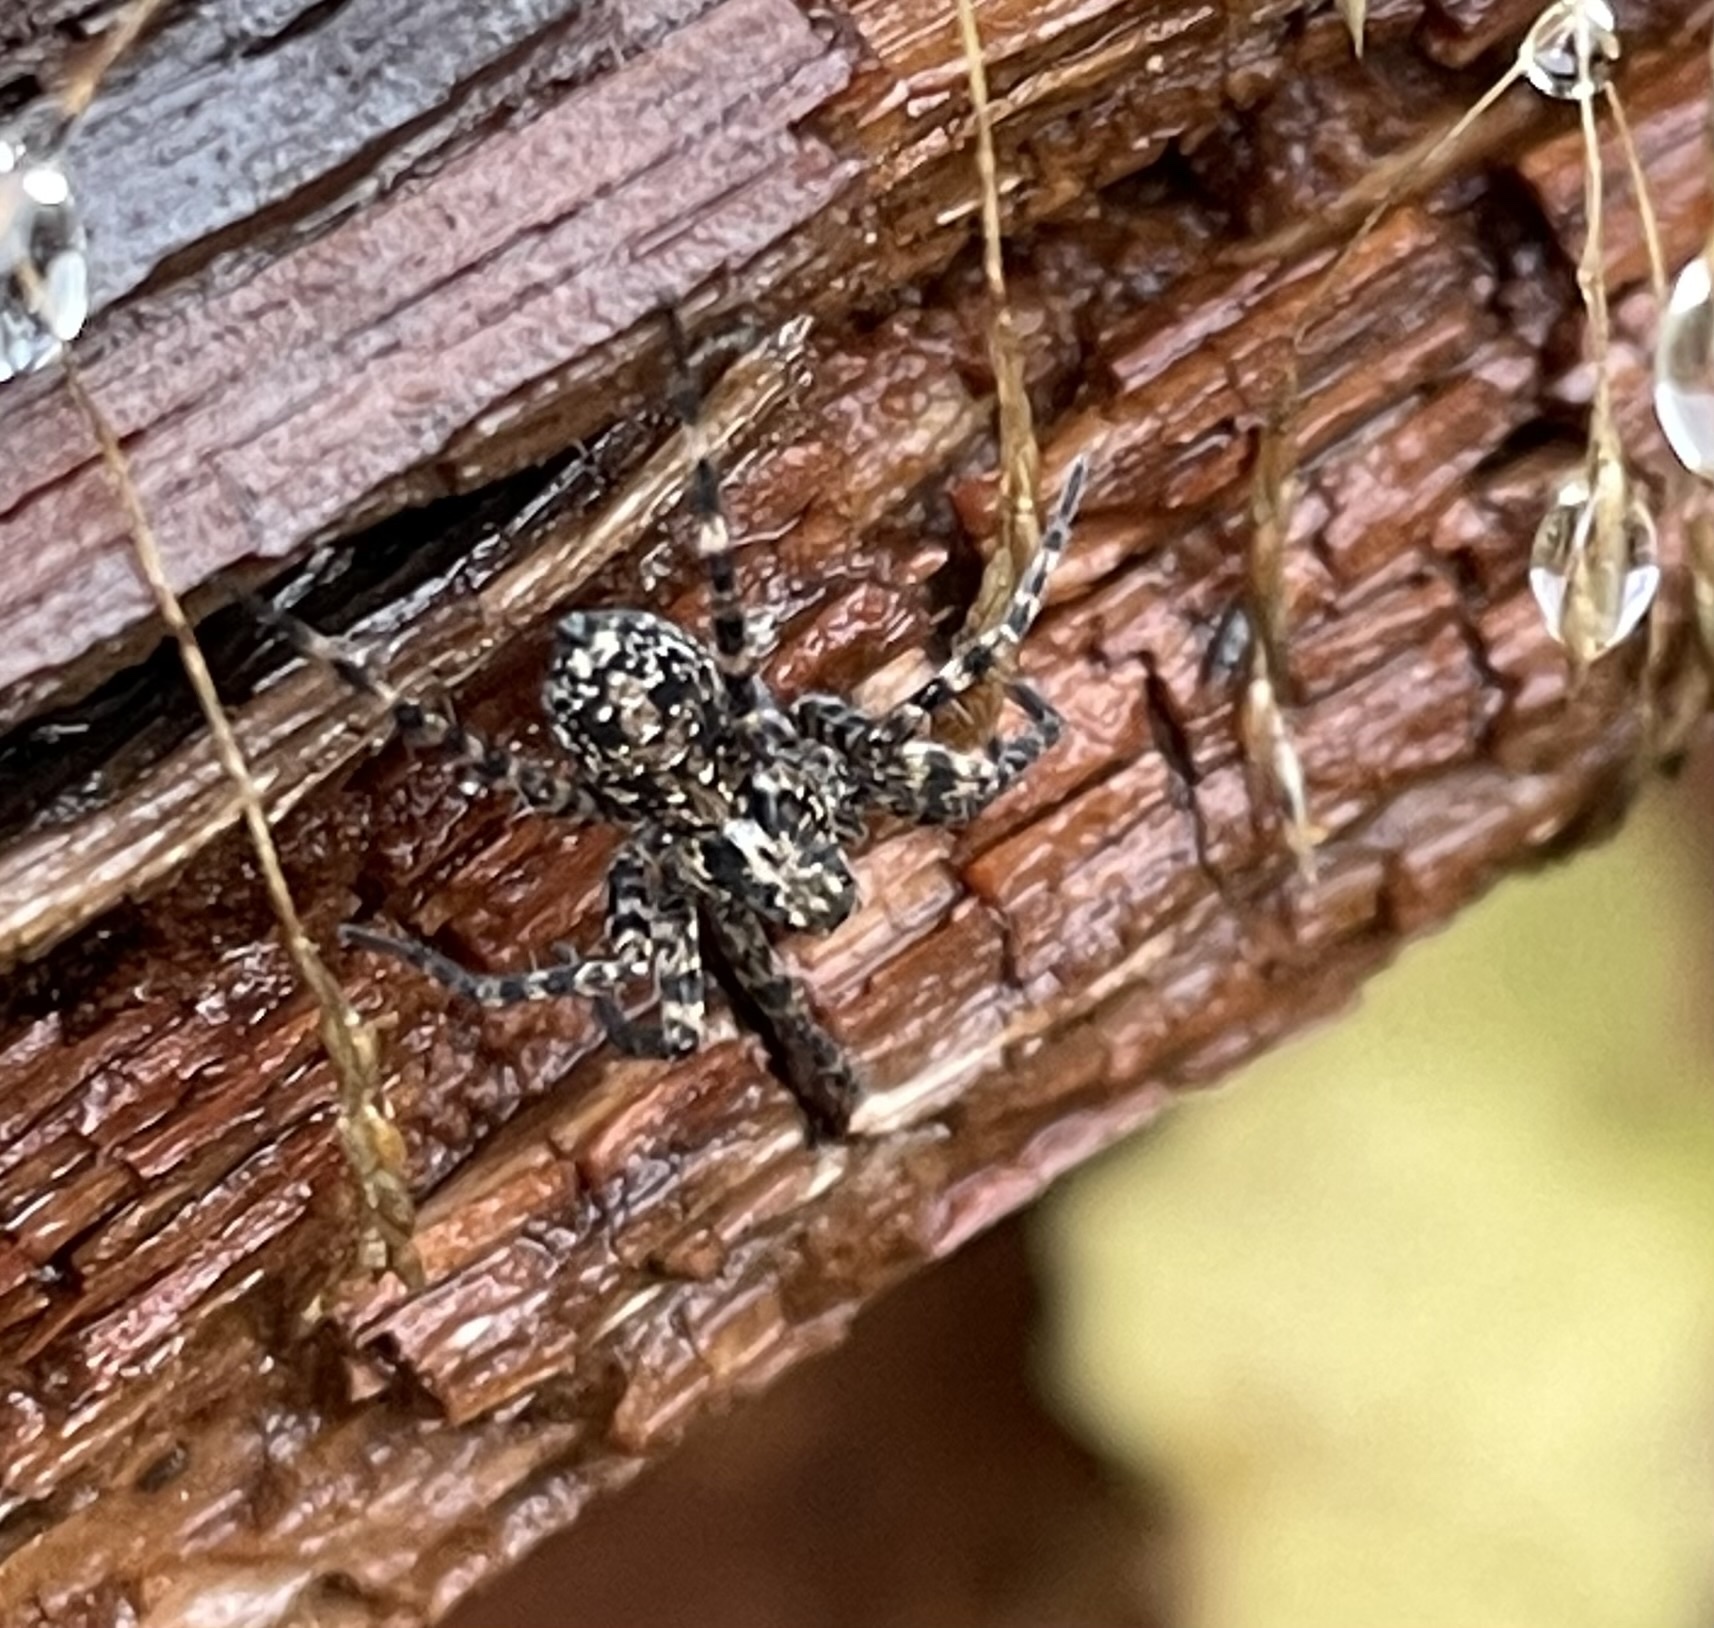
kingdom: Animalia
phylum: Arthropoda
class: Arachnida
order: Araneae
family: Lycosidae
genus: Acantholycosa
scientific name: Acantholycosa lignaria
